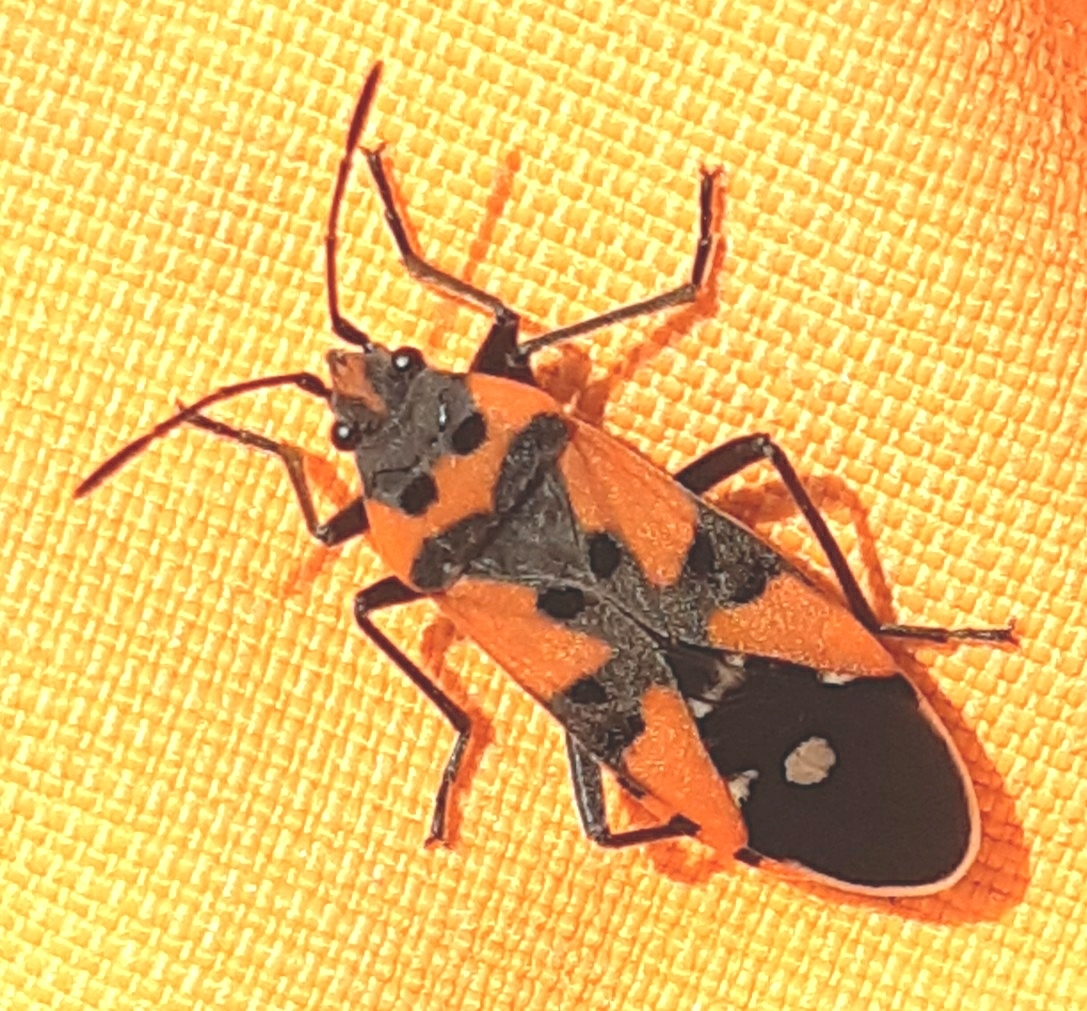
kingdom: Animalia
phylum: Arthropoda
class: Insecta
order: Hemiptera
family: Lygaeidae
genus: Lygaeus
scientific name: Lygaeus equestris
